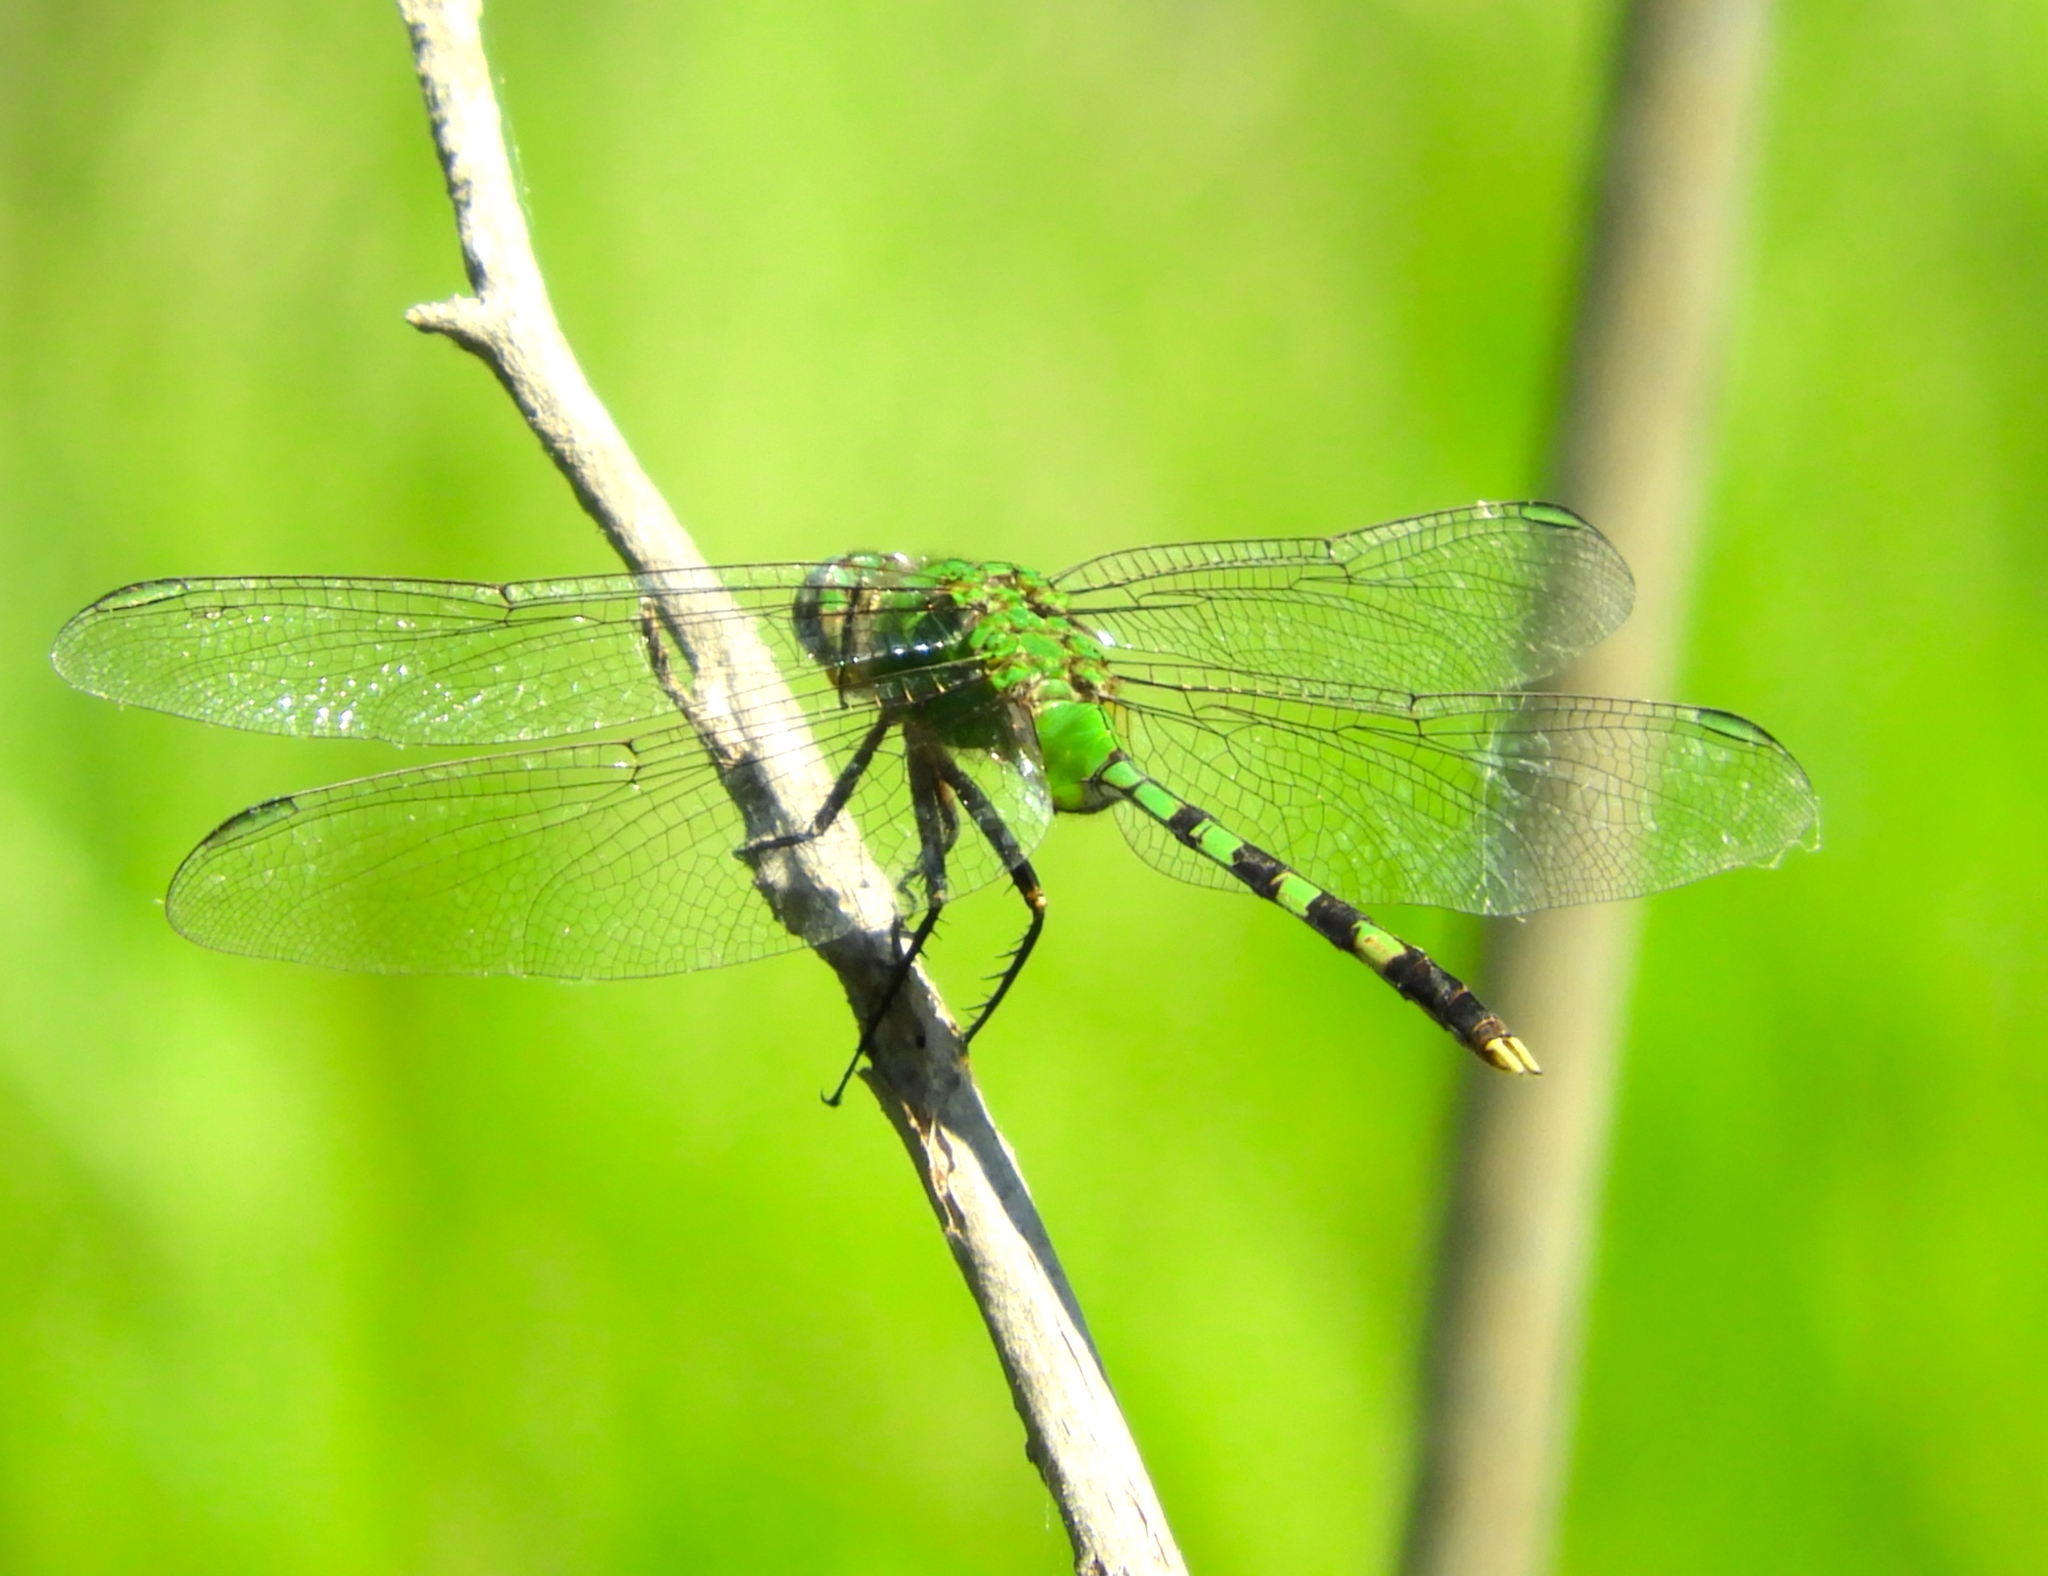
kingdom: Animalia
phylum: Arthropoda
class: Insecta
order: Odonata
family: Libellulidae
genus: Erythemis
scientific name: Erythemis vesiculosa
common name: Great pondhawk
